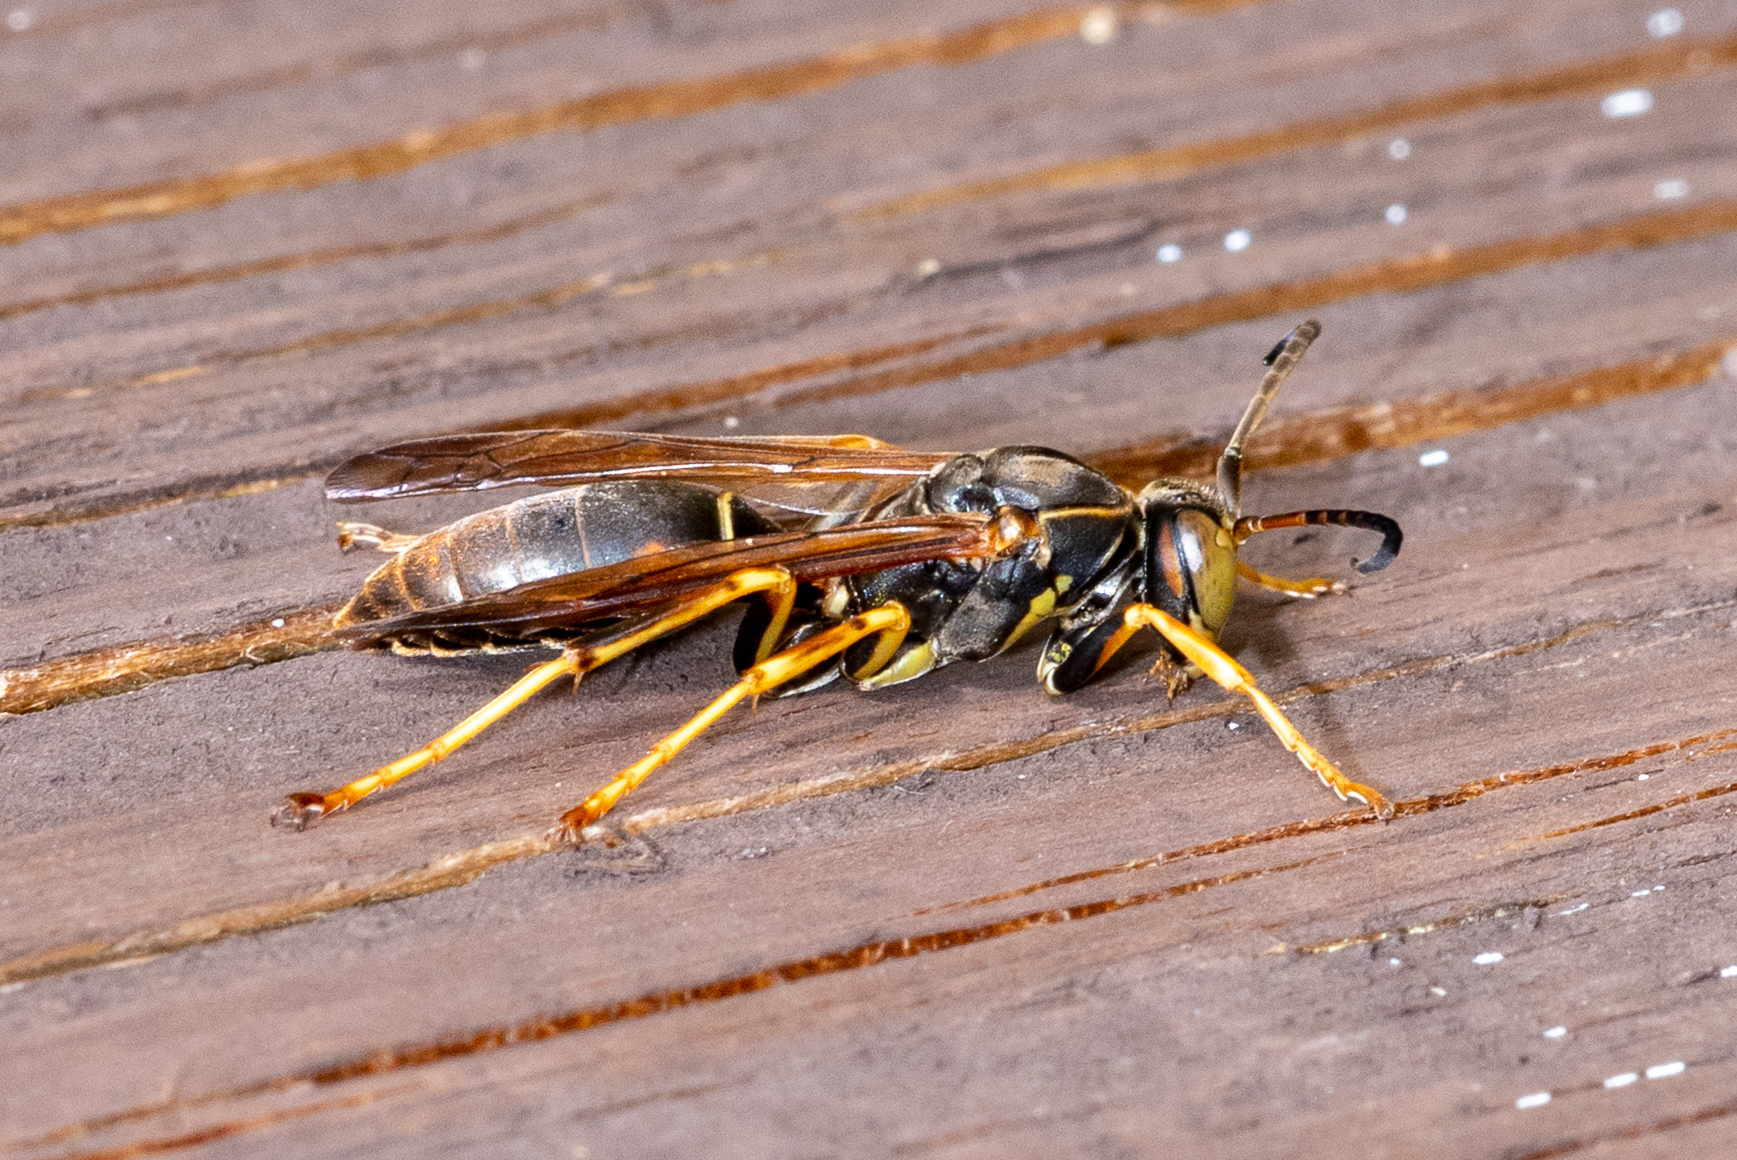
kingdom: Animalia
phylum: Arthropoda
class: Insecta
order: Hymenoptera
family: Eumenidae
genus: Polistes
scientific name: Polistes fuscatus
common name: Dark paper wasp
